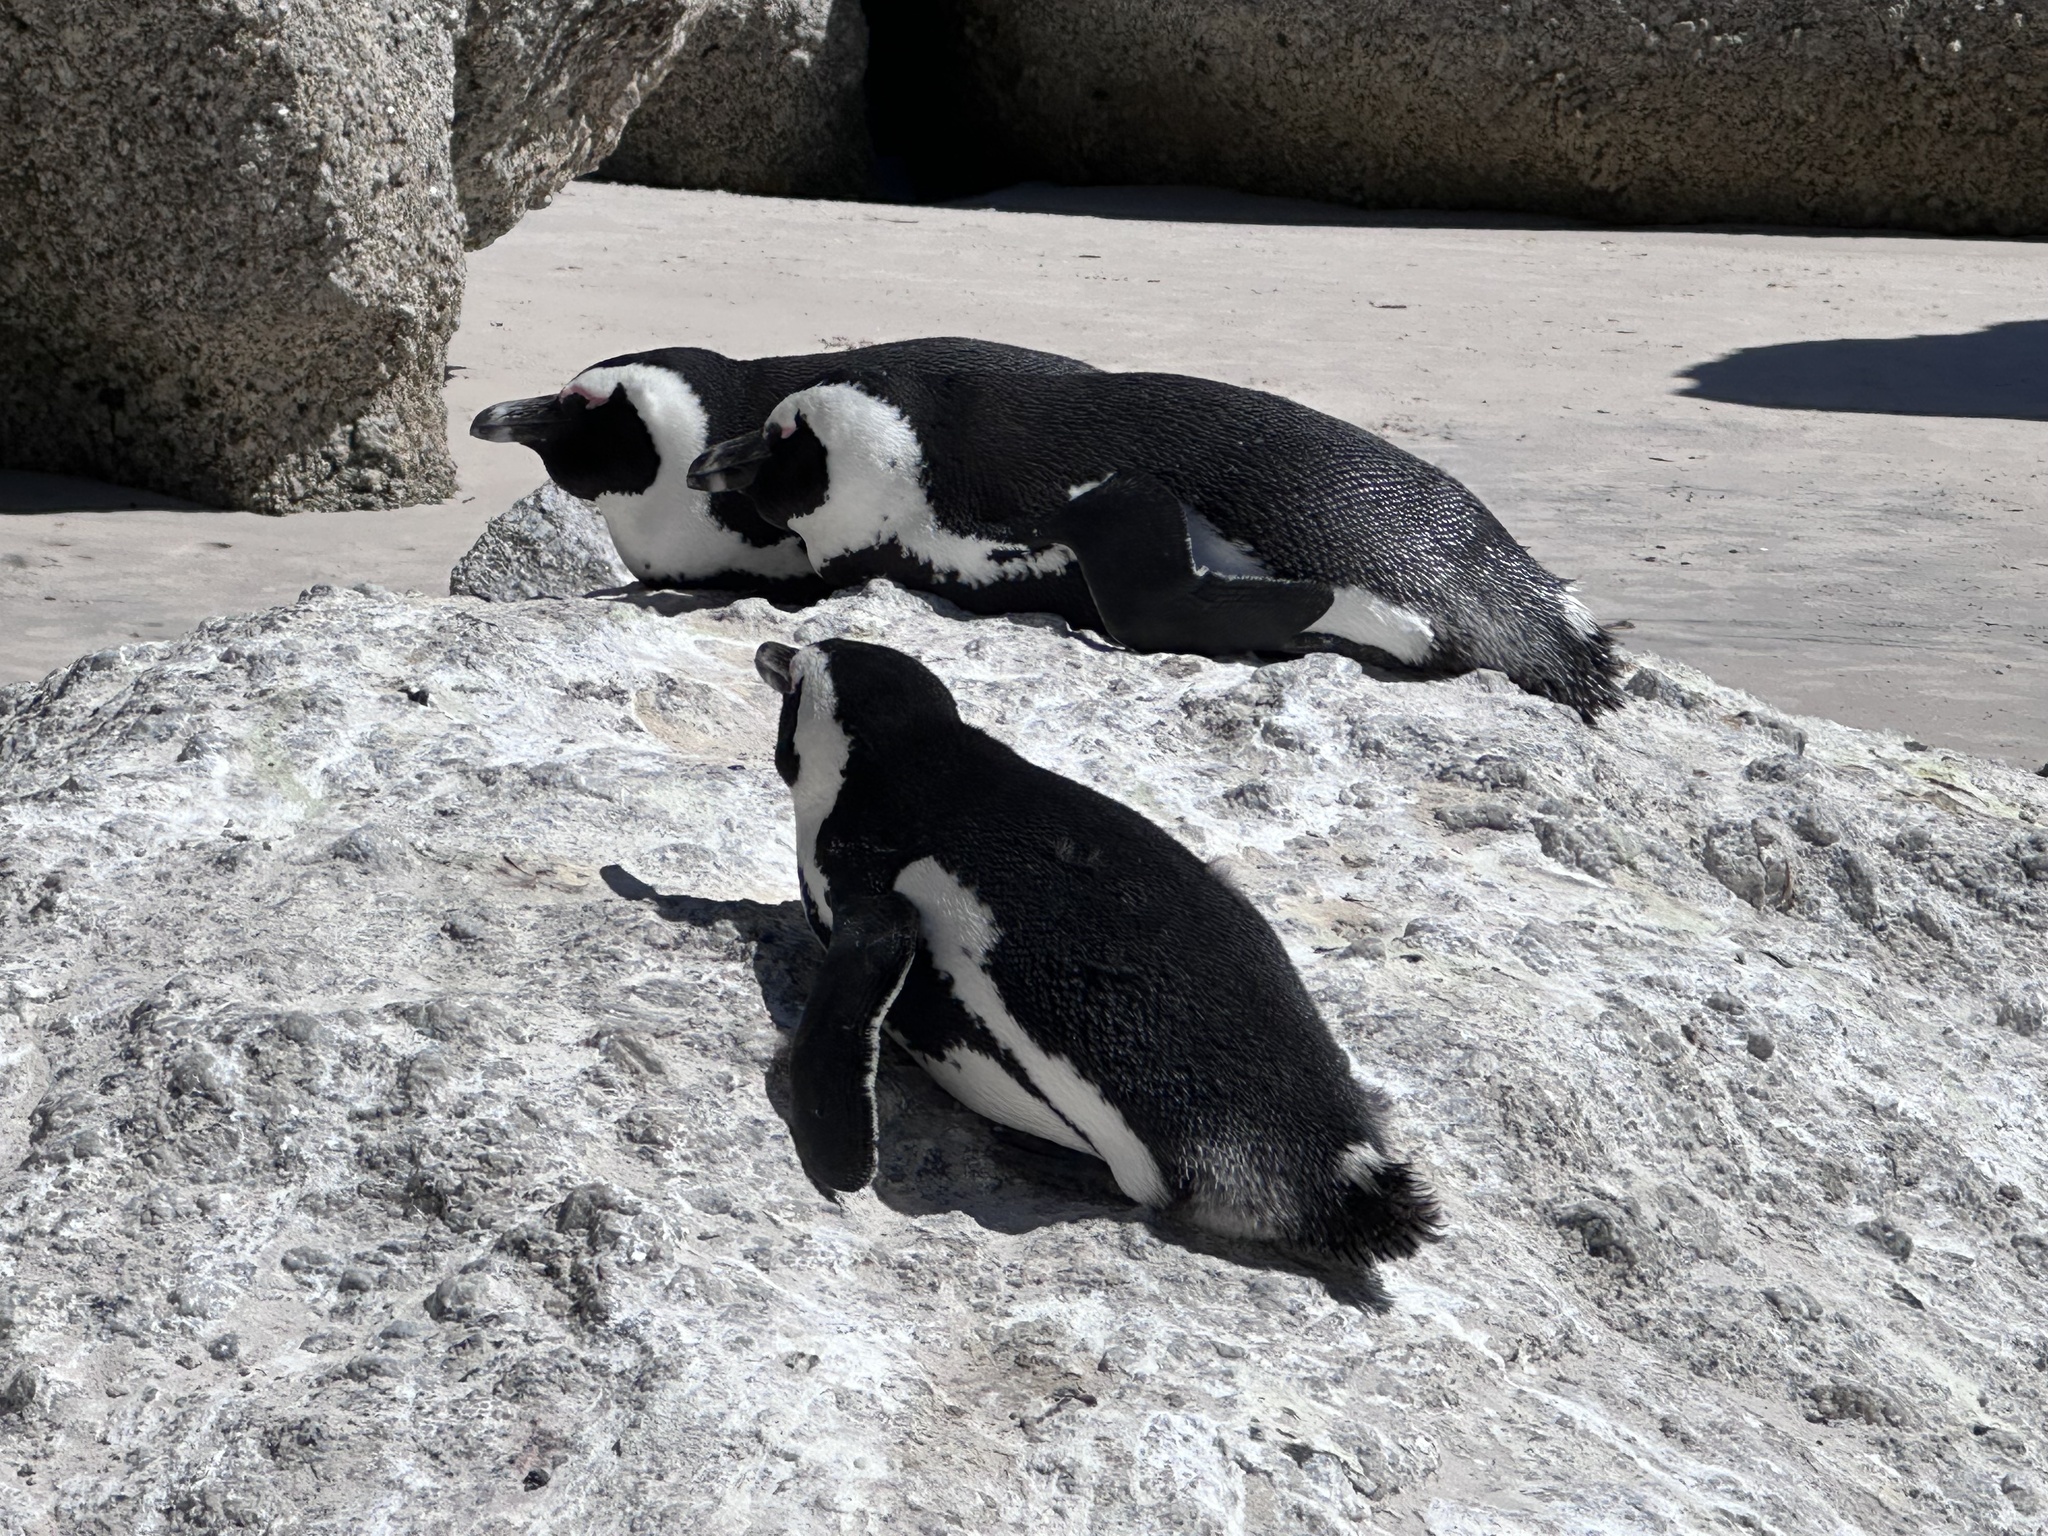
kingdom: Animalia
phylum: Chordata
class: Aves
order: Sphenisciformes
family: Spheniscidae
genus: Spheniscus
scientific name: Spheniscus demersus
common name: African penguin
